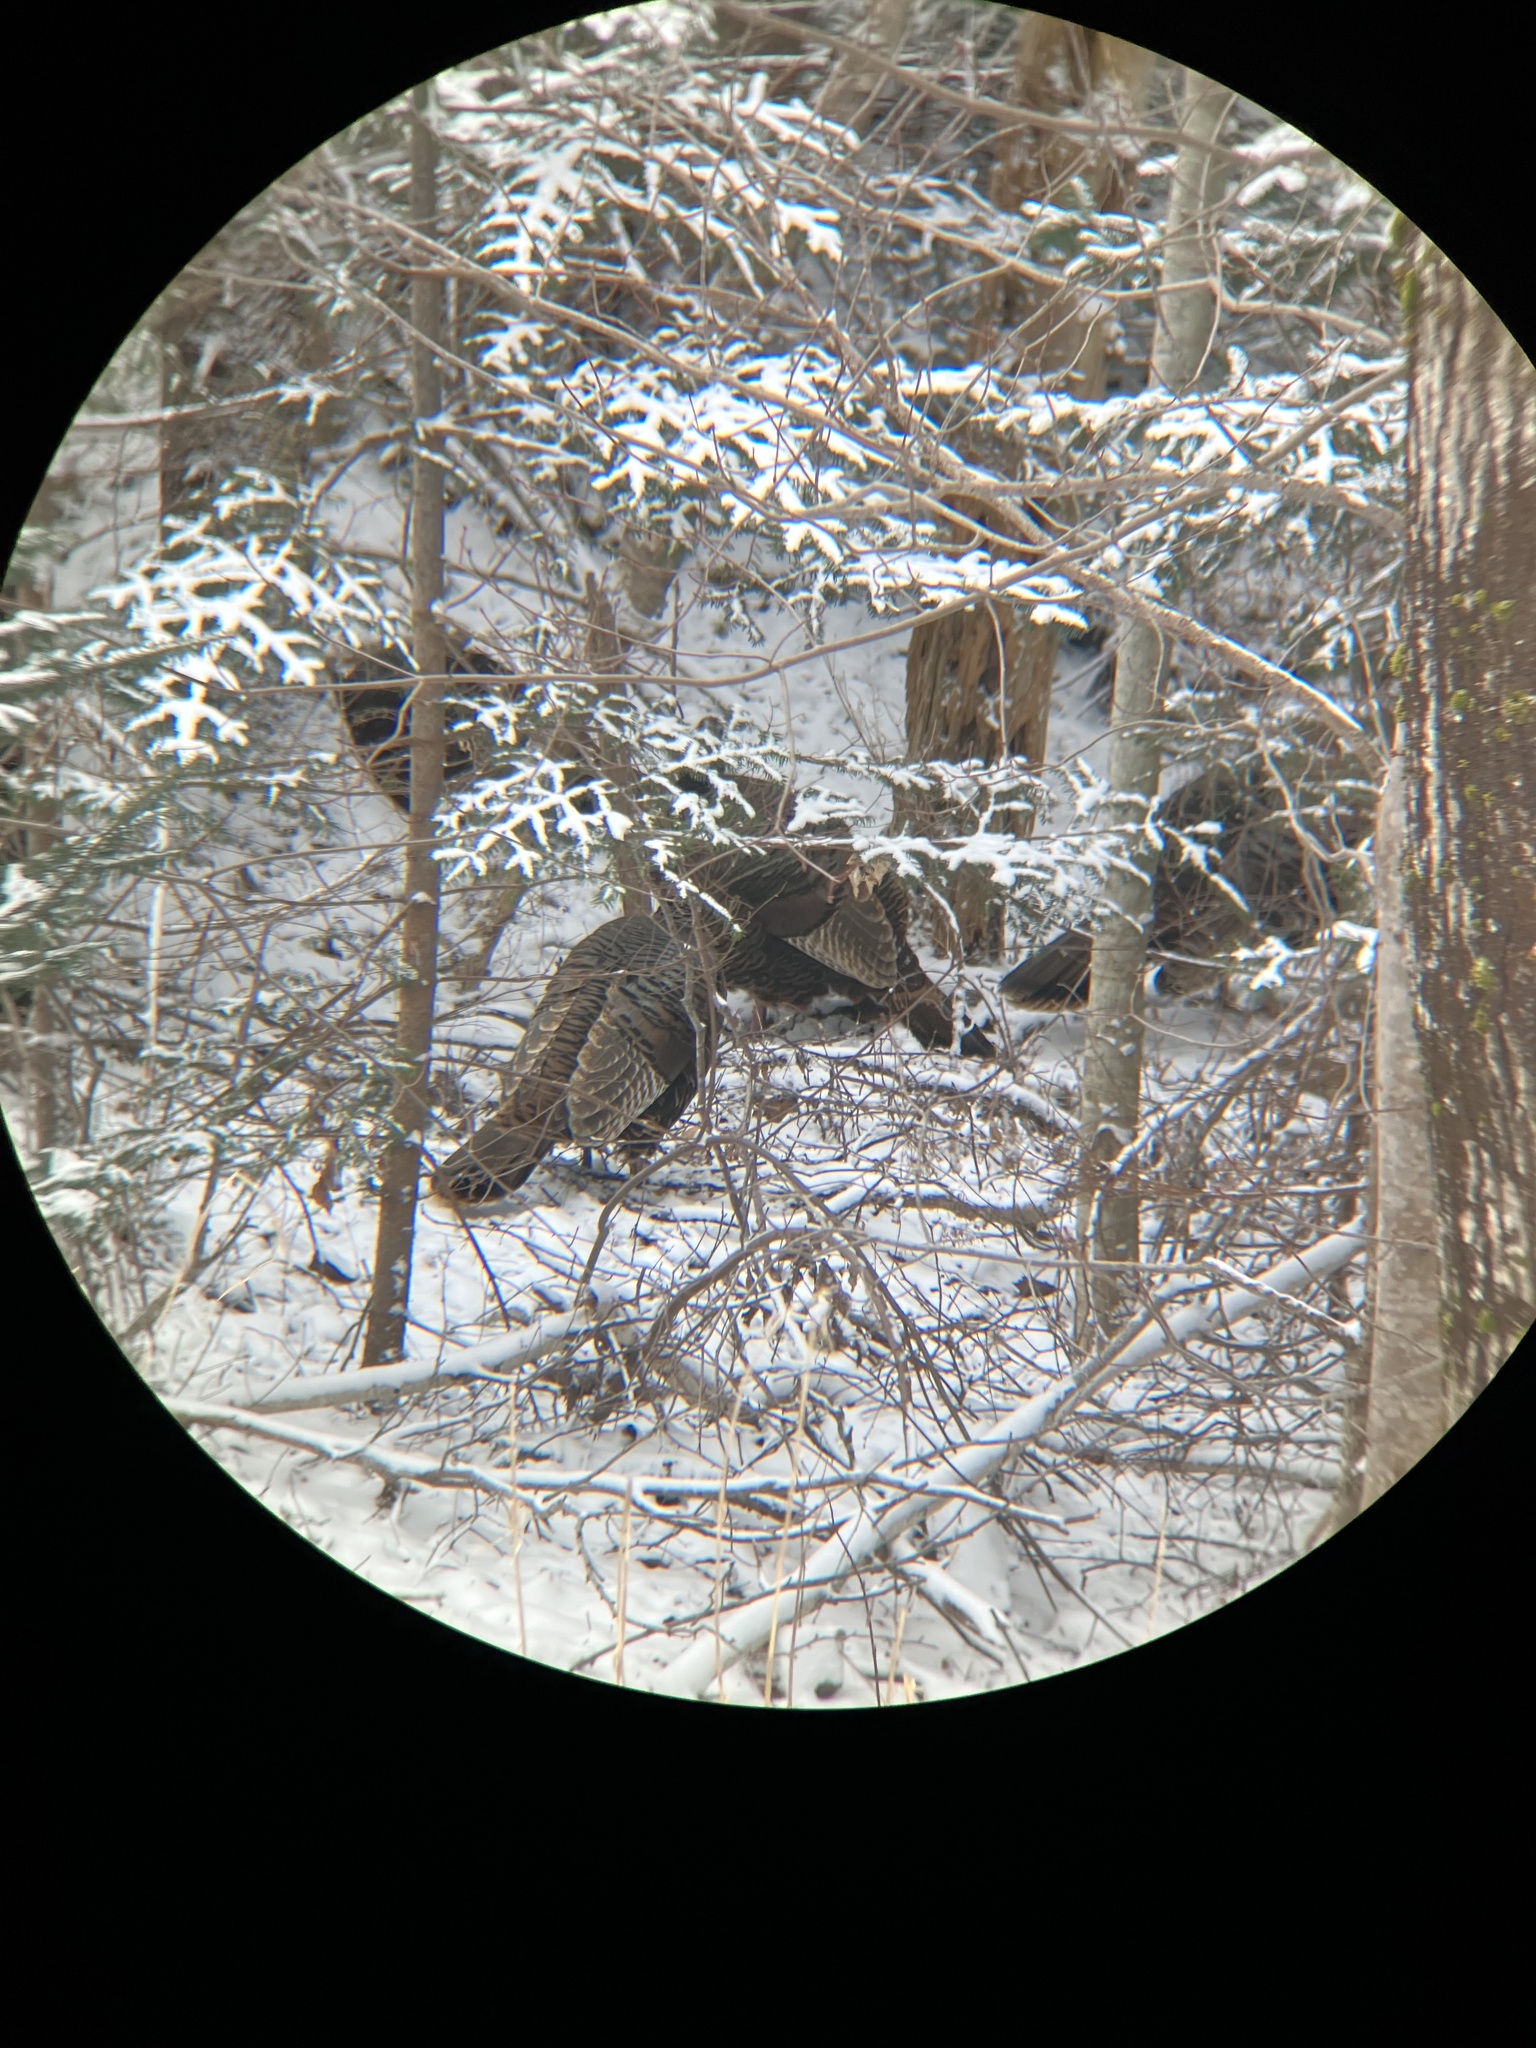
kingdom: Animalia
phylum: Chordata
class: Aves
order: Galliformes
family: Phasianidae
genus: Meleagris
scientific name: Meleagris gallopavo
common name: Wild turkey
